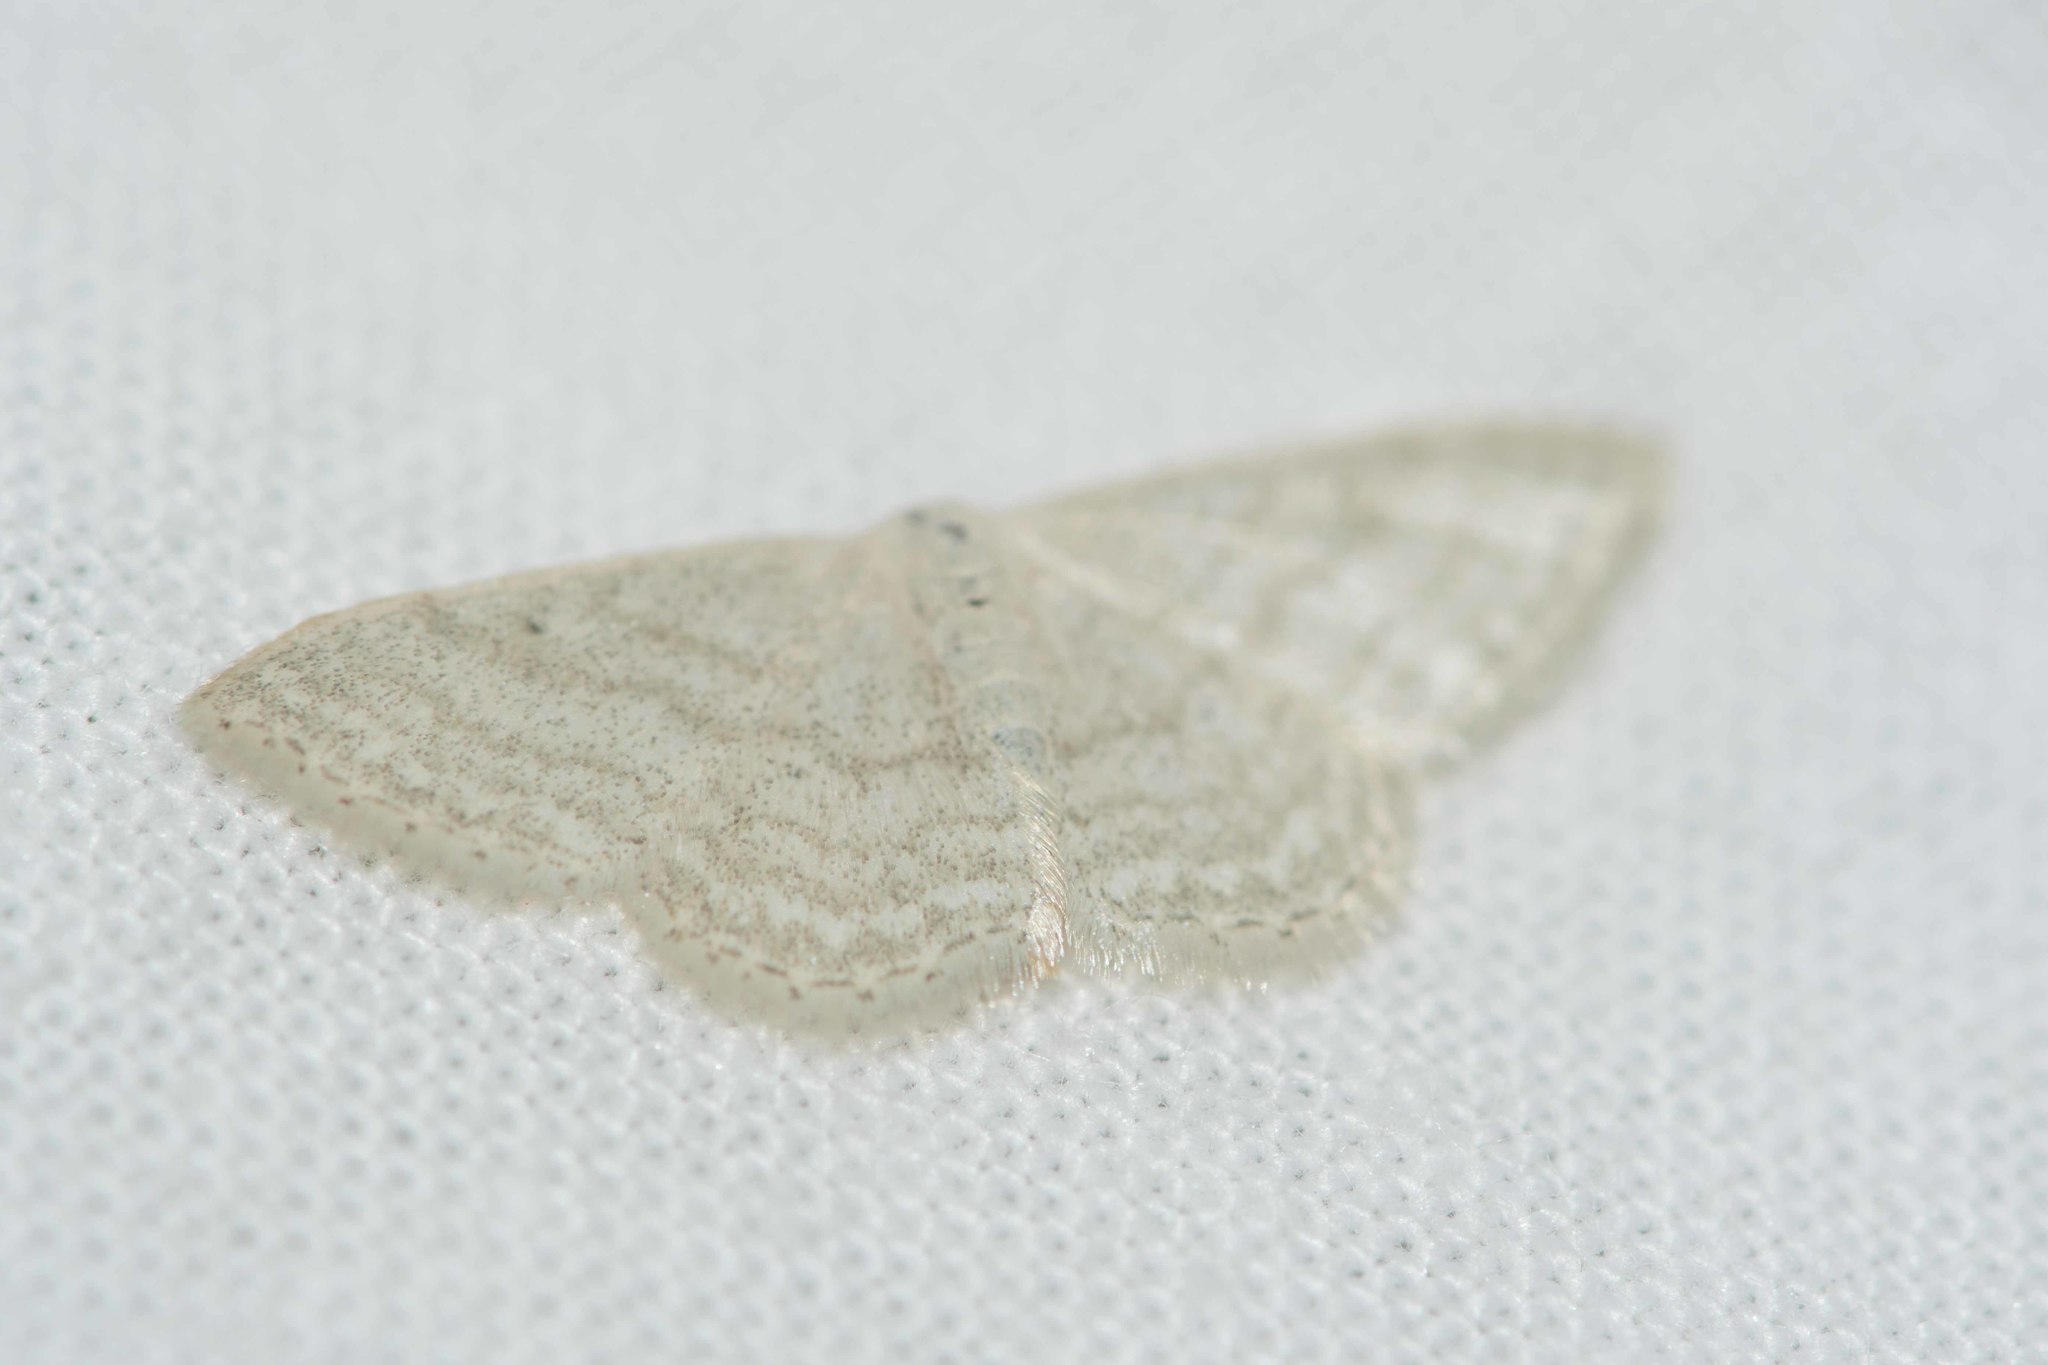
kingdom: Animalia
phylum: Arthropoda
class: Insecta
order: Lepidoptera
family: Geometridae
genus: Idaea
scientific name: Idaea subsericeata
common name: Satin wave
